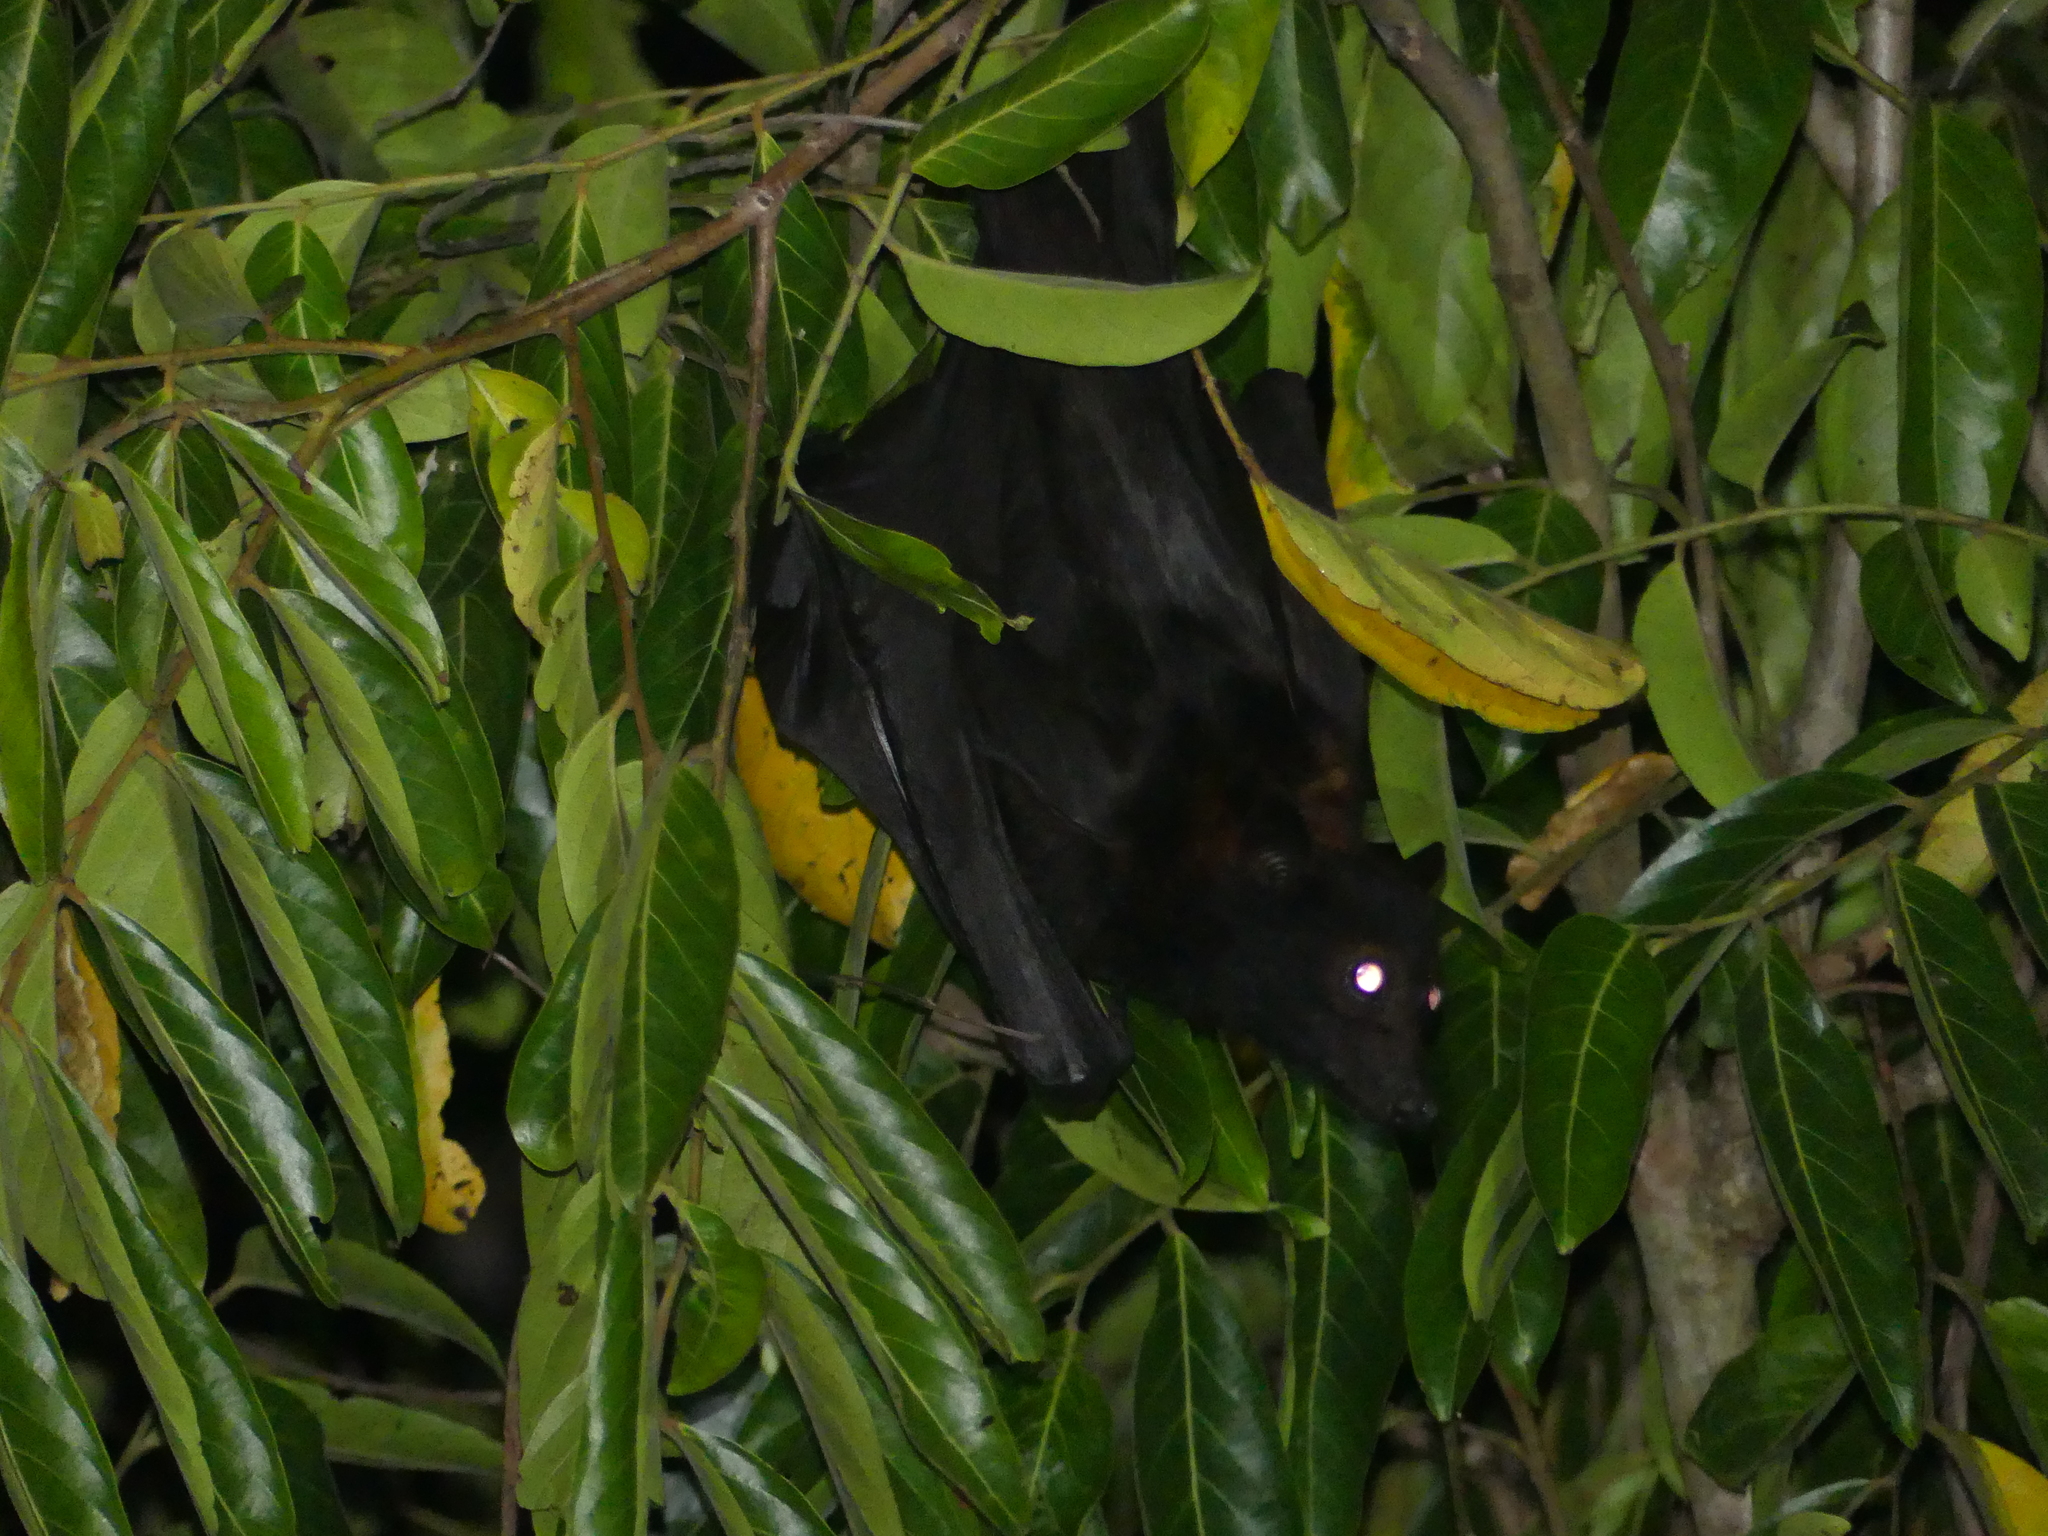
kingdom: Animalia
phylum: Chordata
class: Mammalia
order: Chiroptera
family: Pteropodidae
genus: Pteropus
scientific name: Pteropus alecto
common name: Black flying fox
